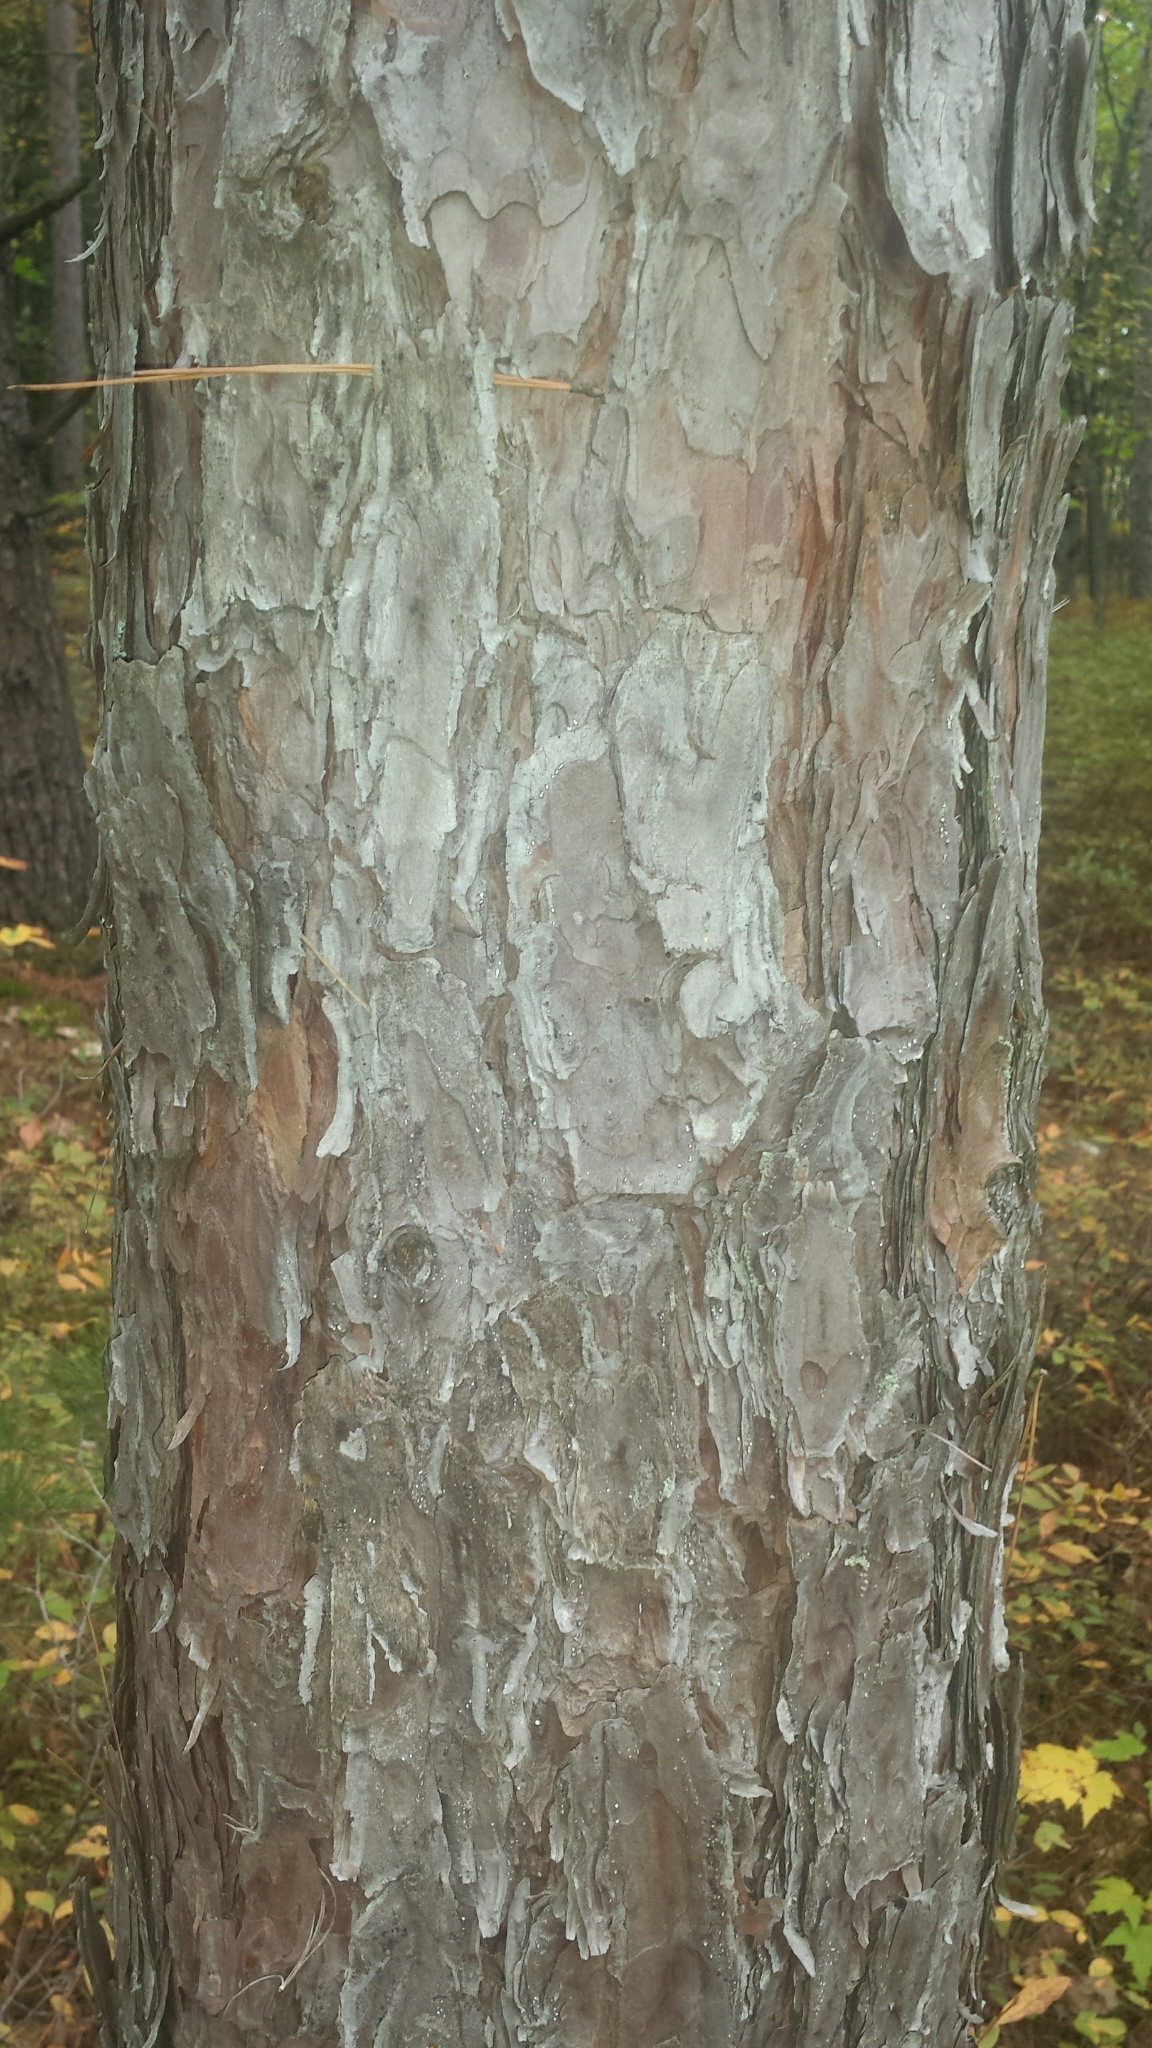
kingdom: Plantae
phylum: Tracheophyta
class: Pinopsida
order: Pinales
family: Pinaceae
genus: Pinus
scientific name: Pinus resinosa
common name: Norway pine
